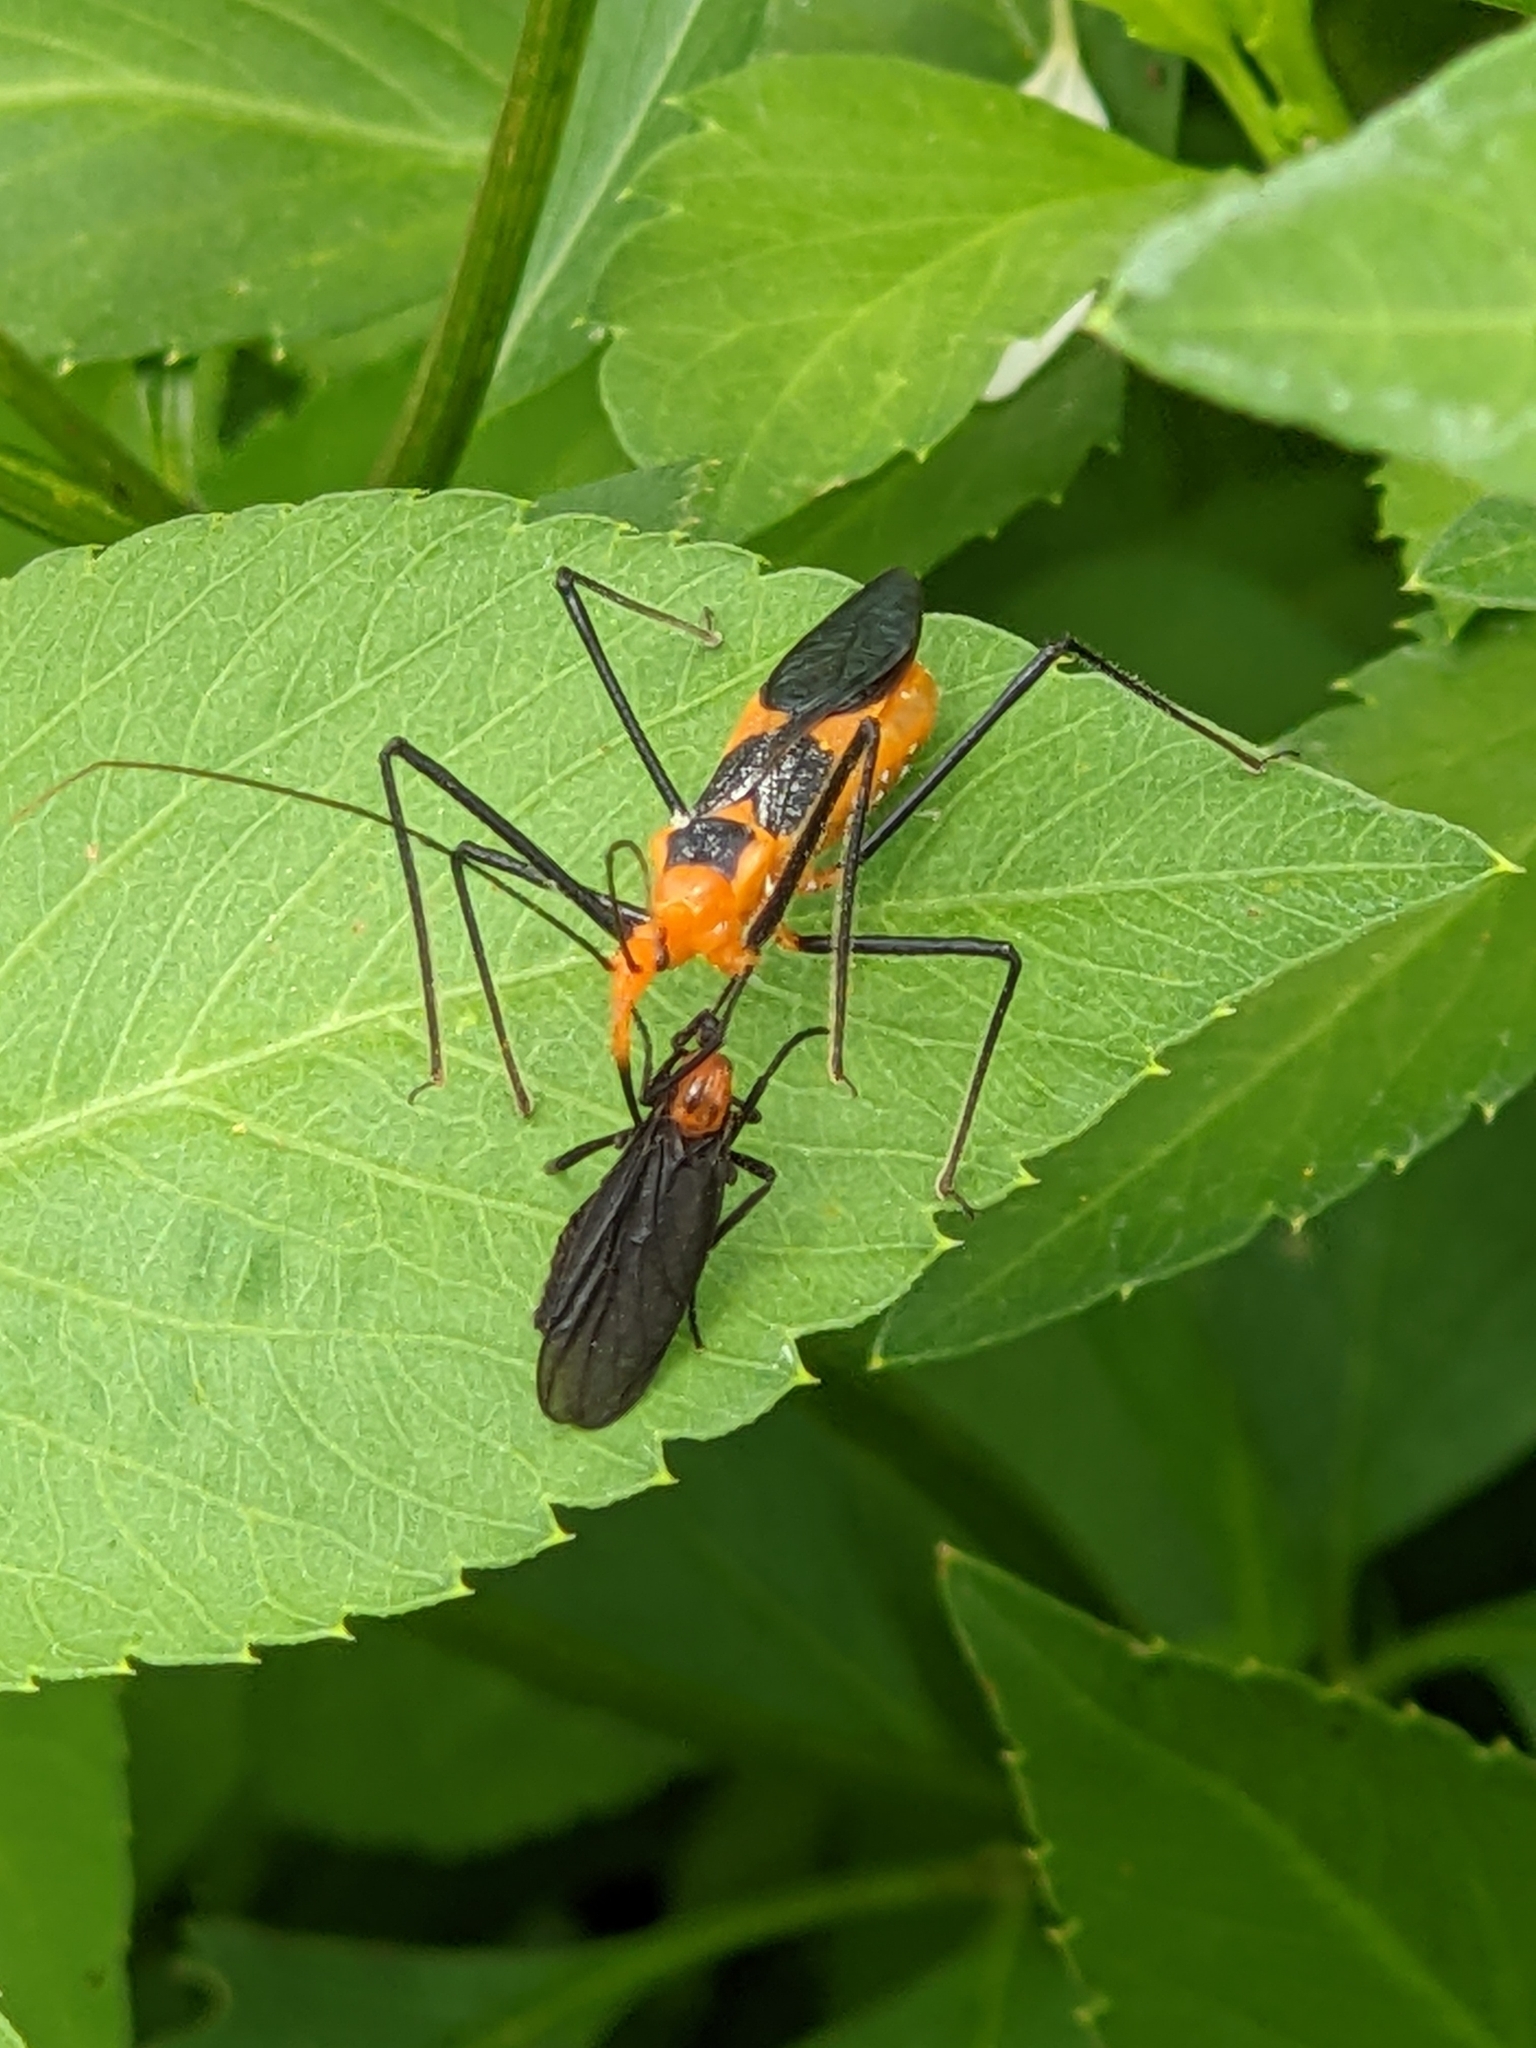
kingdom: Animalia
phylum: Arthropoda
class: Insecta
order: Diptera
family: Bibionidae
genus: Plecia
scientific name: Plecia nearctica
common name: March fly
